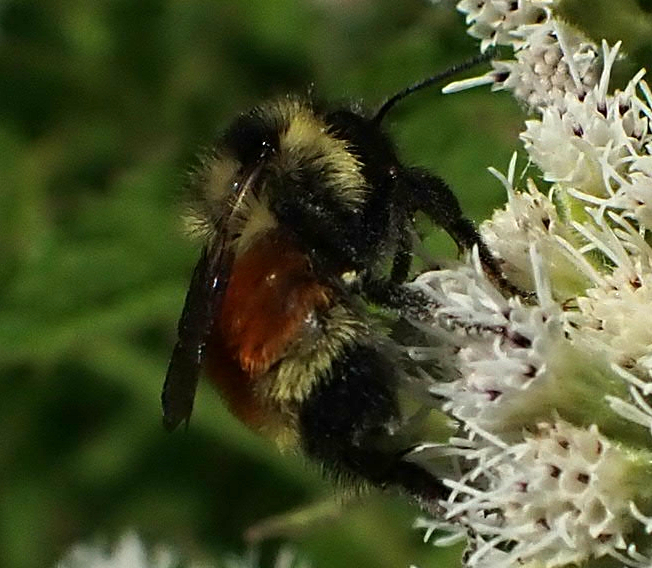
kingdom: Animalia
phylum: Arthropoda
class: Insecta
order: Hymenoptera
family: Apidae
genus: Bombus
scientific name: Bombus ternarius
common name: Tri-colored bumble bee
